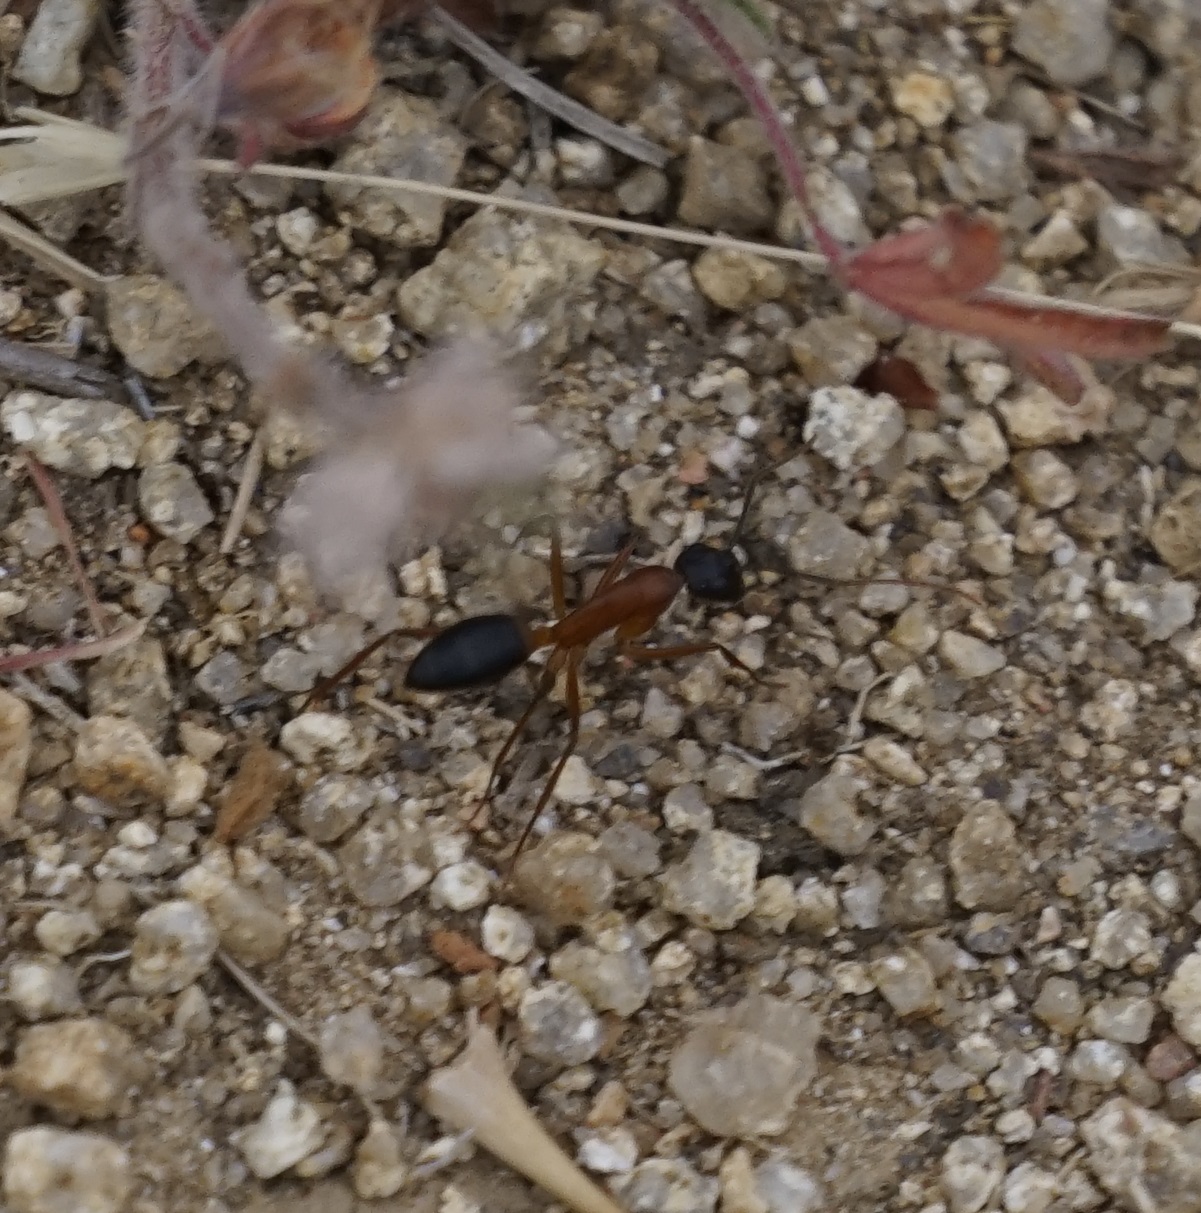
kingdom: Animalia
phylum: Arthropoda
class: Insecta
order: Hymenoptera
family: Formicidae
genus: Camponotus
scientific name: Camponotus nigriceps
